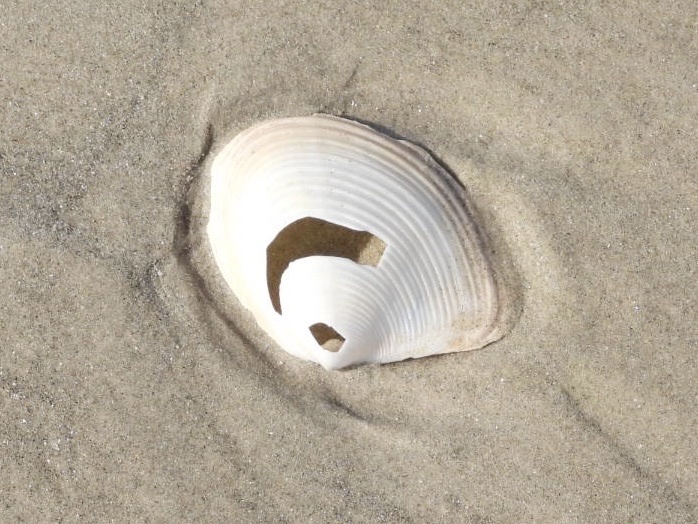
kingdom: Animalia
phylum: Mollusca
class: Bivalvia
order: Venerida
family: Anatinellidae
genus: Raeta
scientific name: Raeta plicatella
